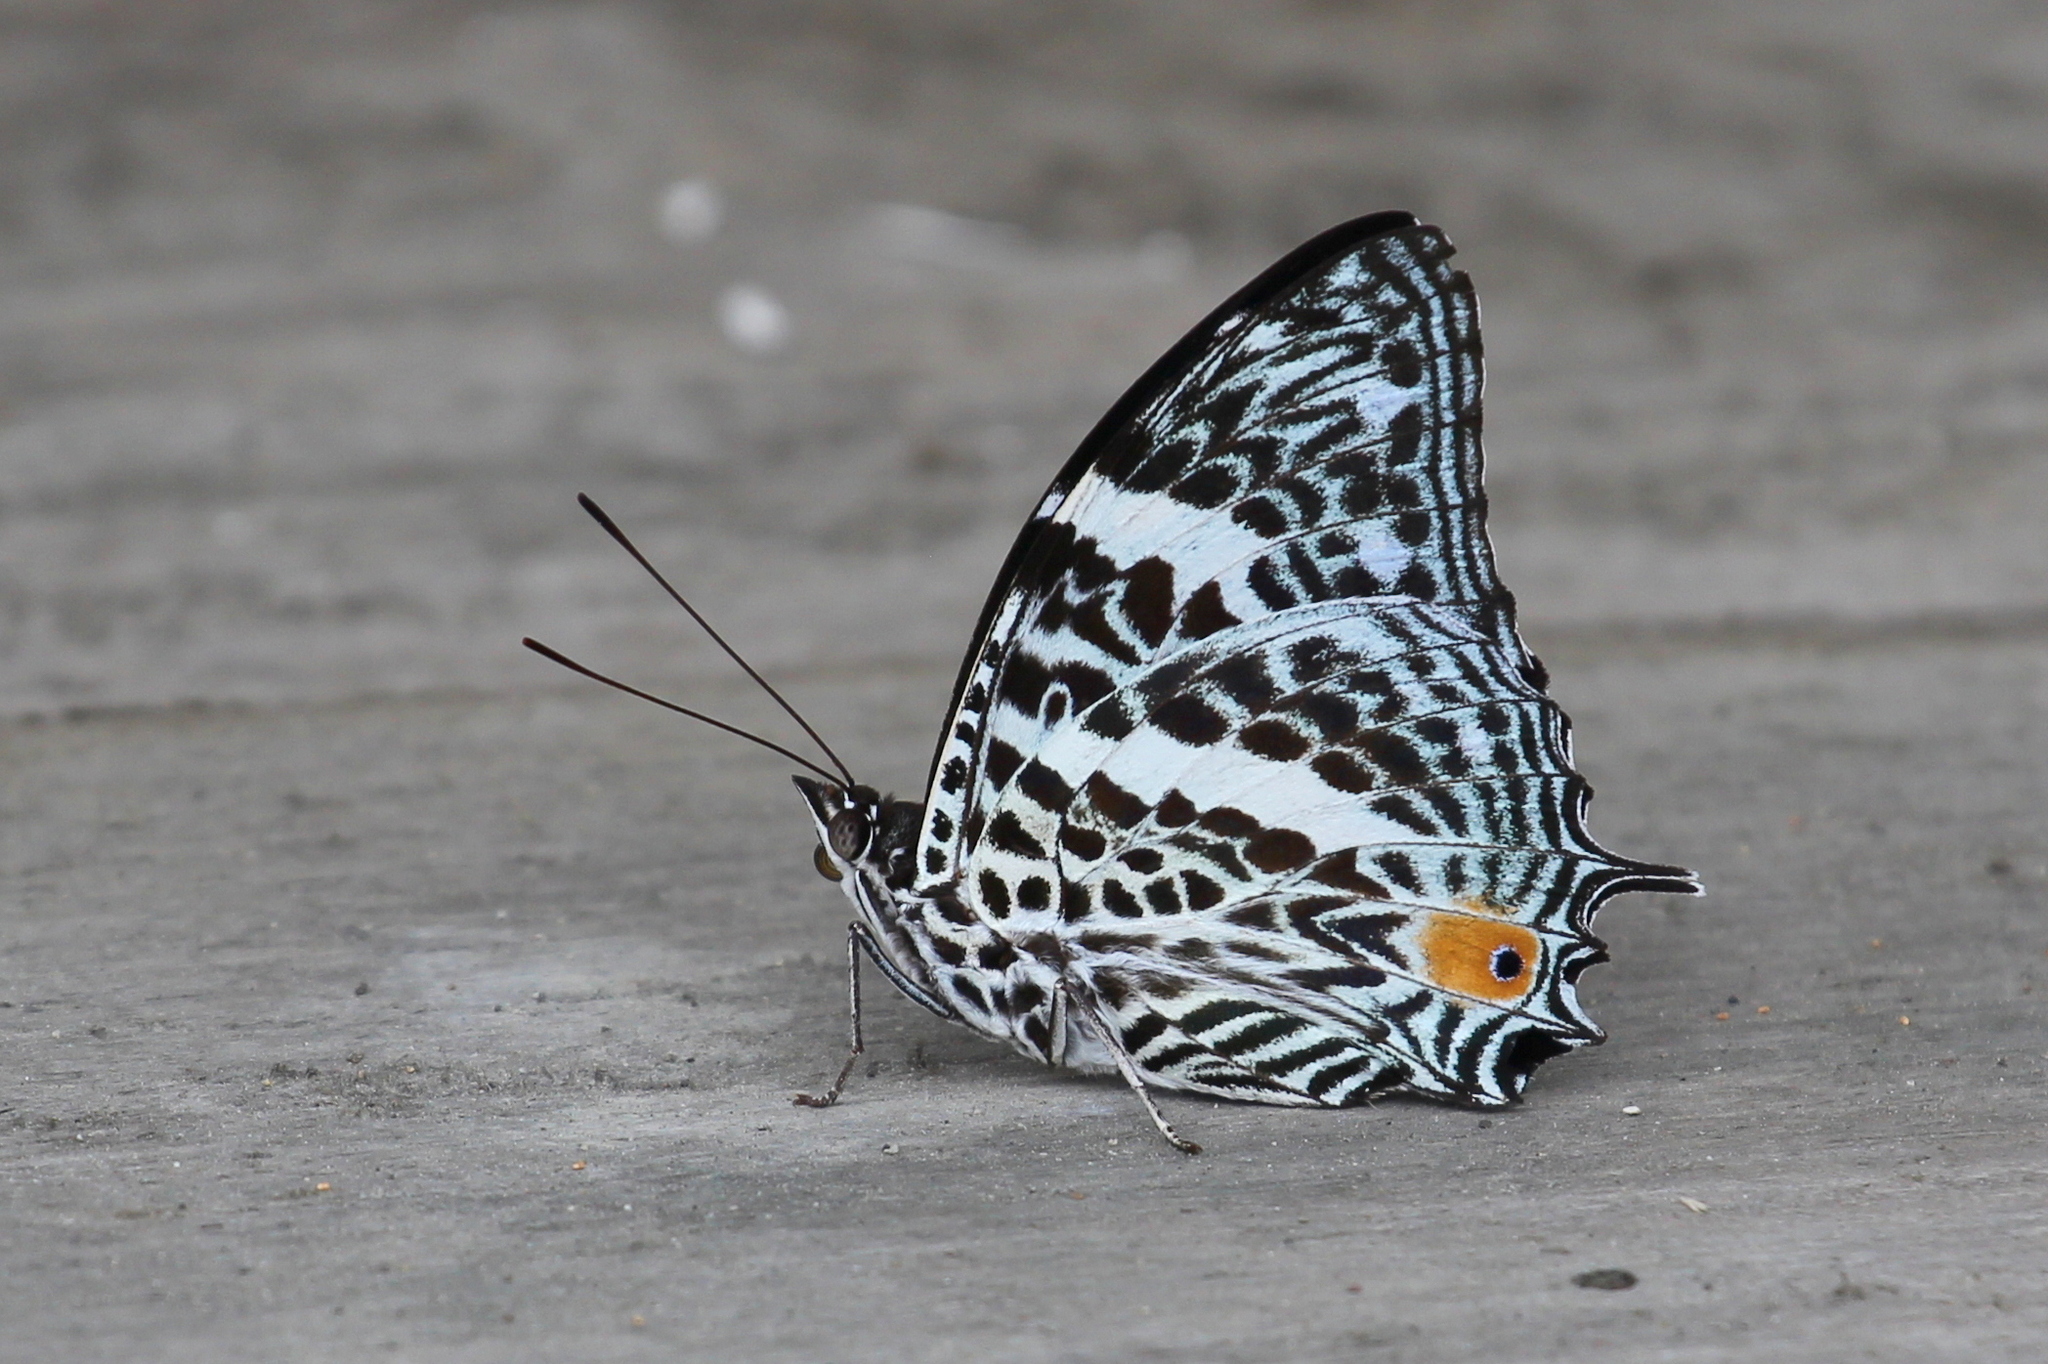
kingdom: Animalia
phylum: Arthropoda
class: Insecta
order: Lepidoptera
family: Nymphalidae
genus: Baeotus
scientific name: Baeotus deucalion
